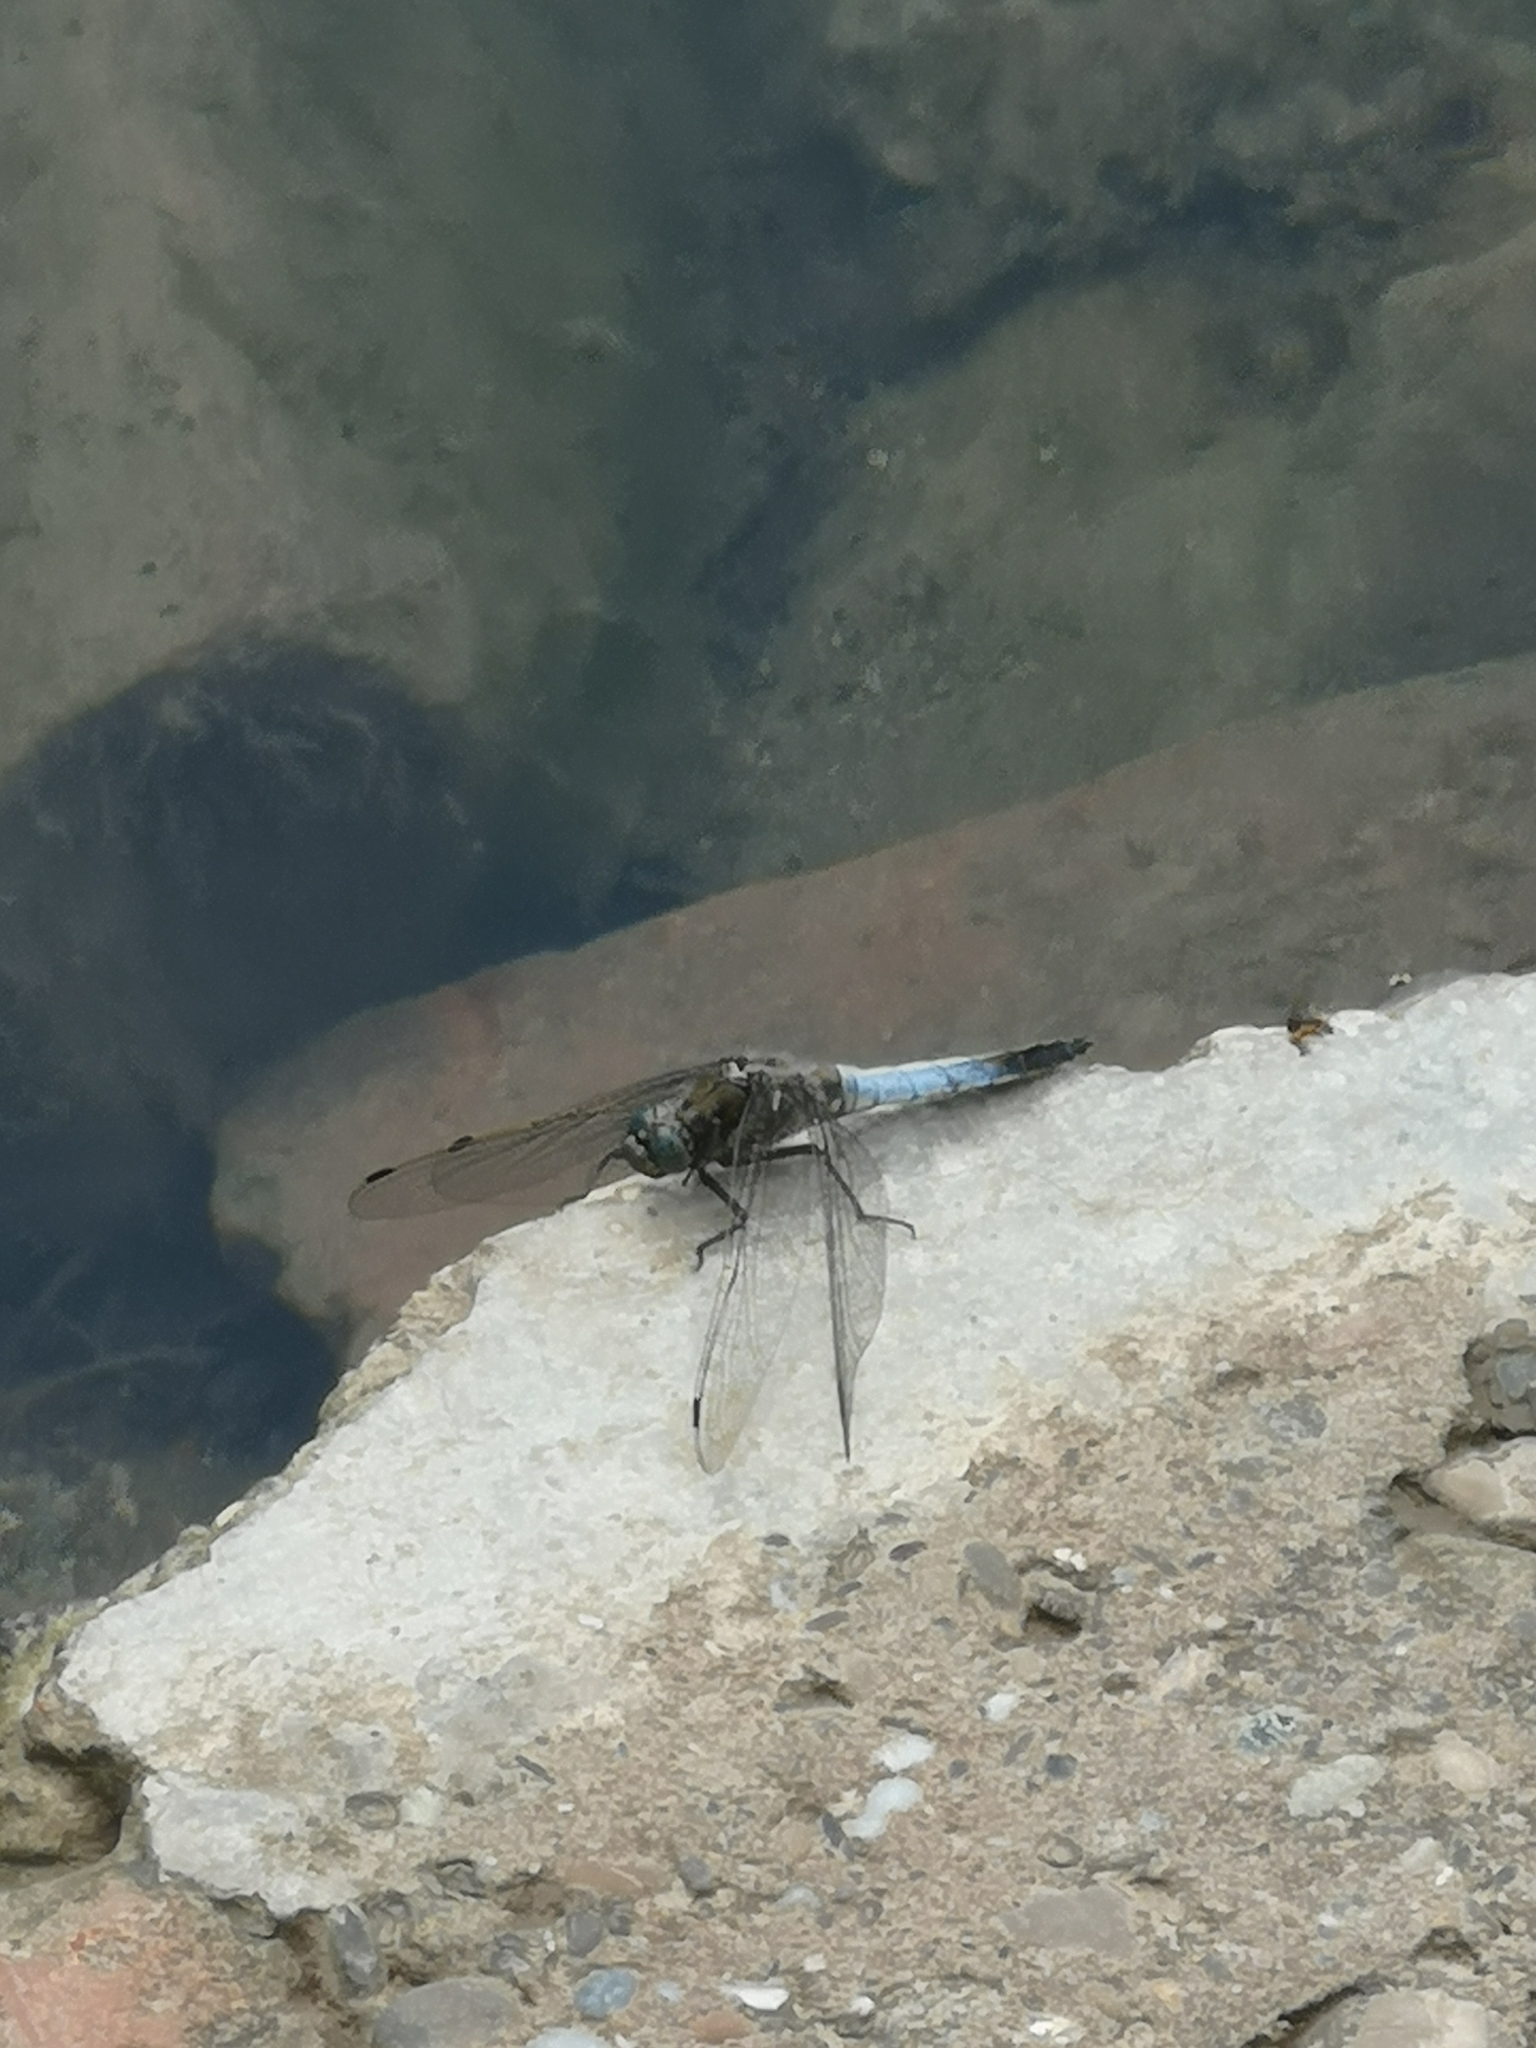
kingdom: Animalia
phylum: Arthropoda
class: Insecta
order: Odonata
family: Libellulidae
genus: Orthetrum
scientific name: Orthetrum cancellatum
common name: Black-tailed skimmer
